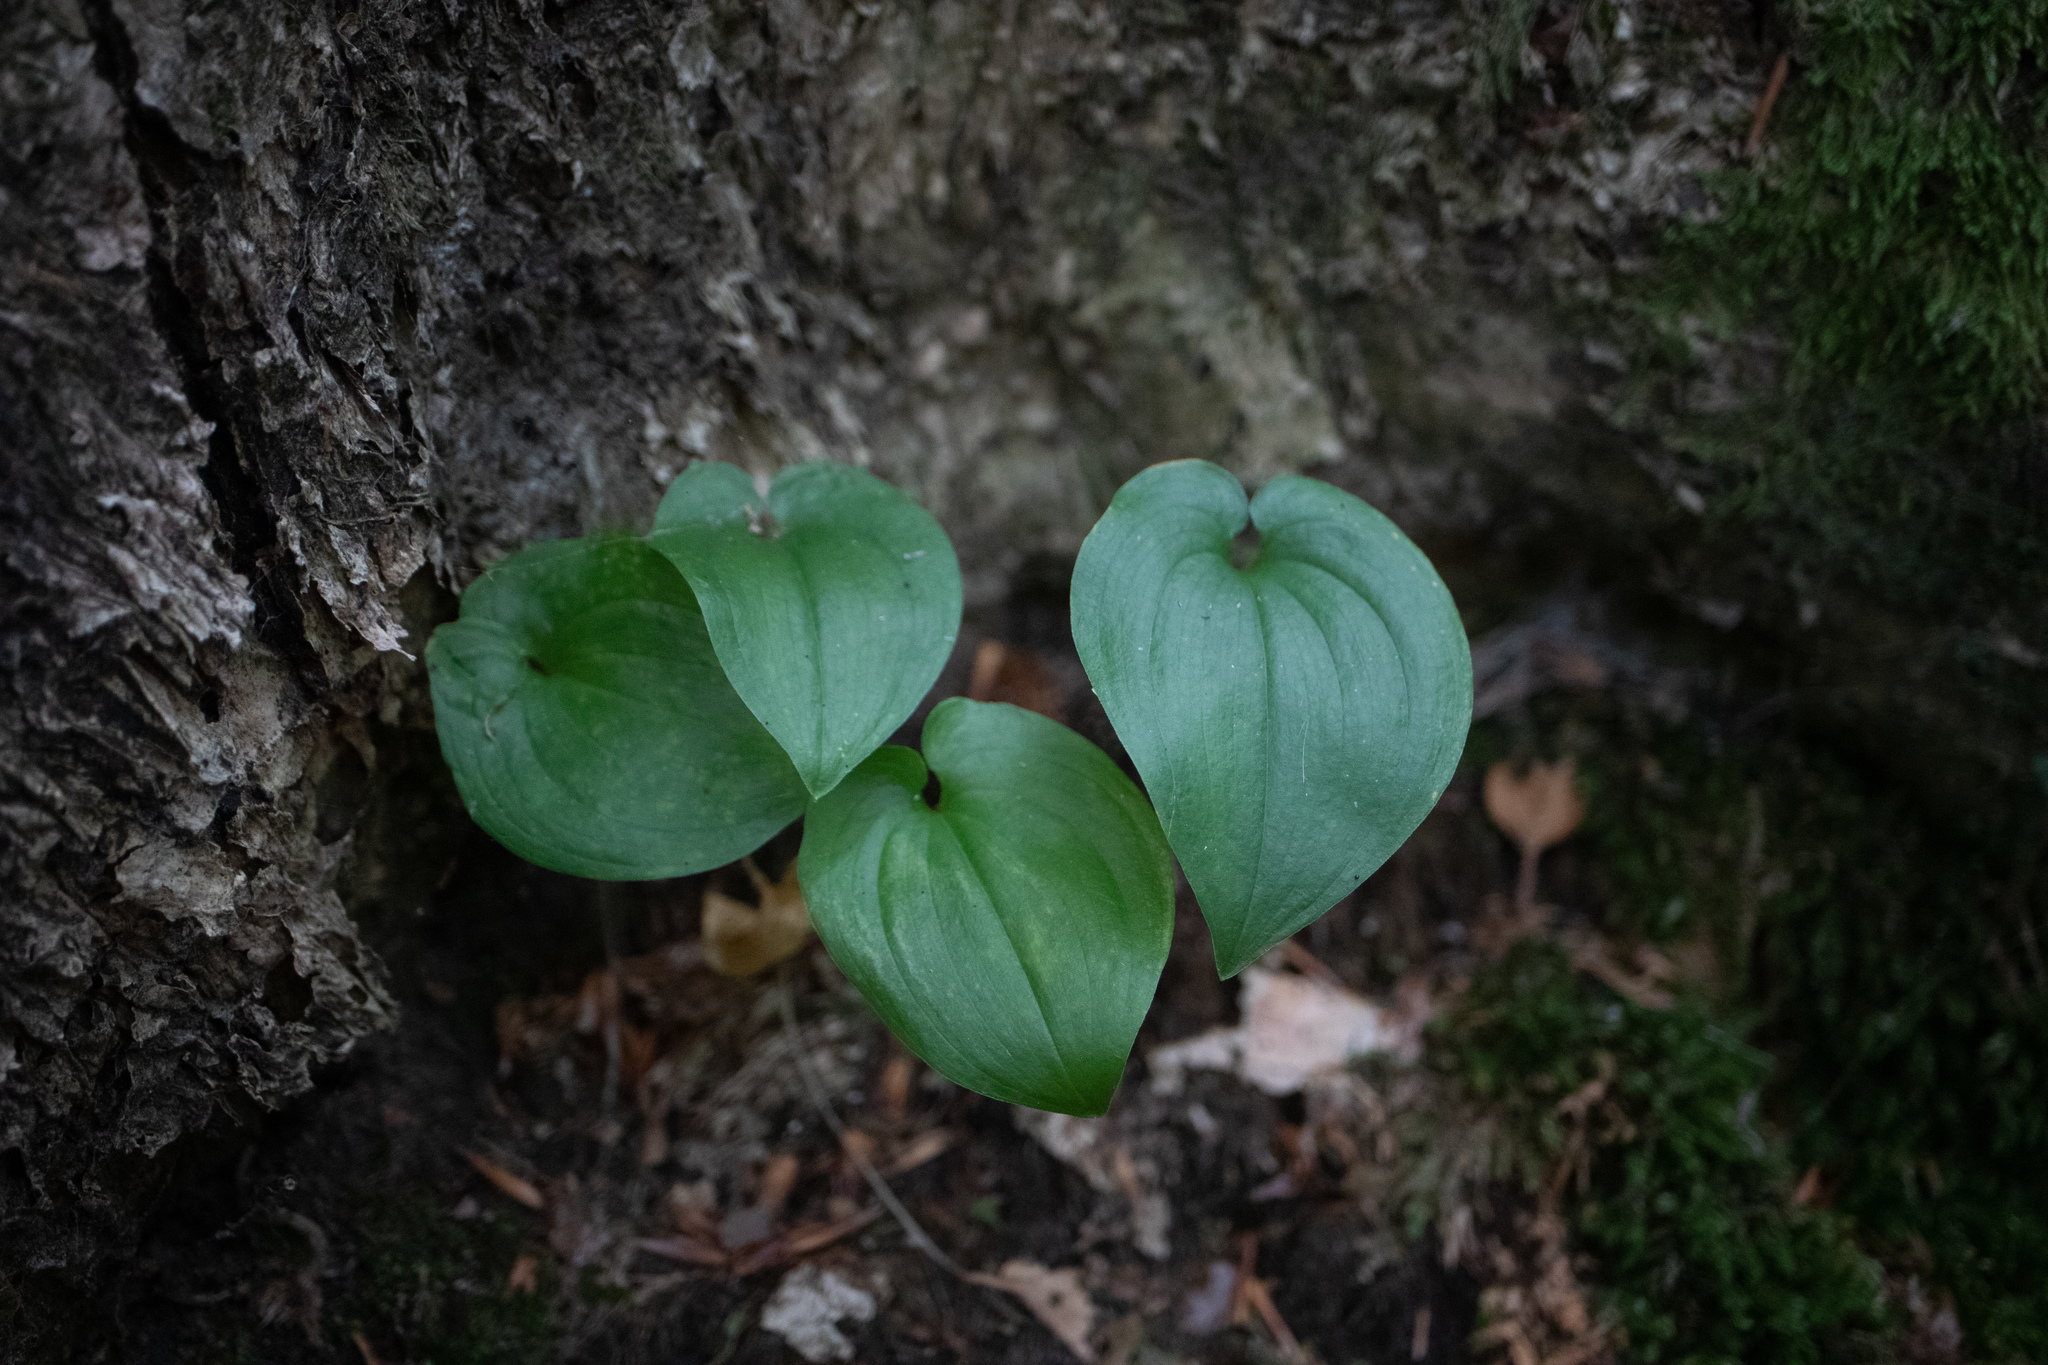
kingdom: Plantae
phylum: Tracheophyta
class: Liliopsida
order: Asparagales
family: Asparagaceae
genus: Maianthemum
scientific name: Maianthemum bifolium
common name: May lily
